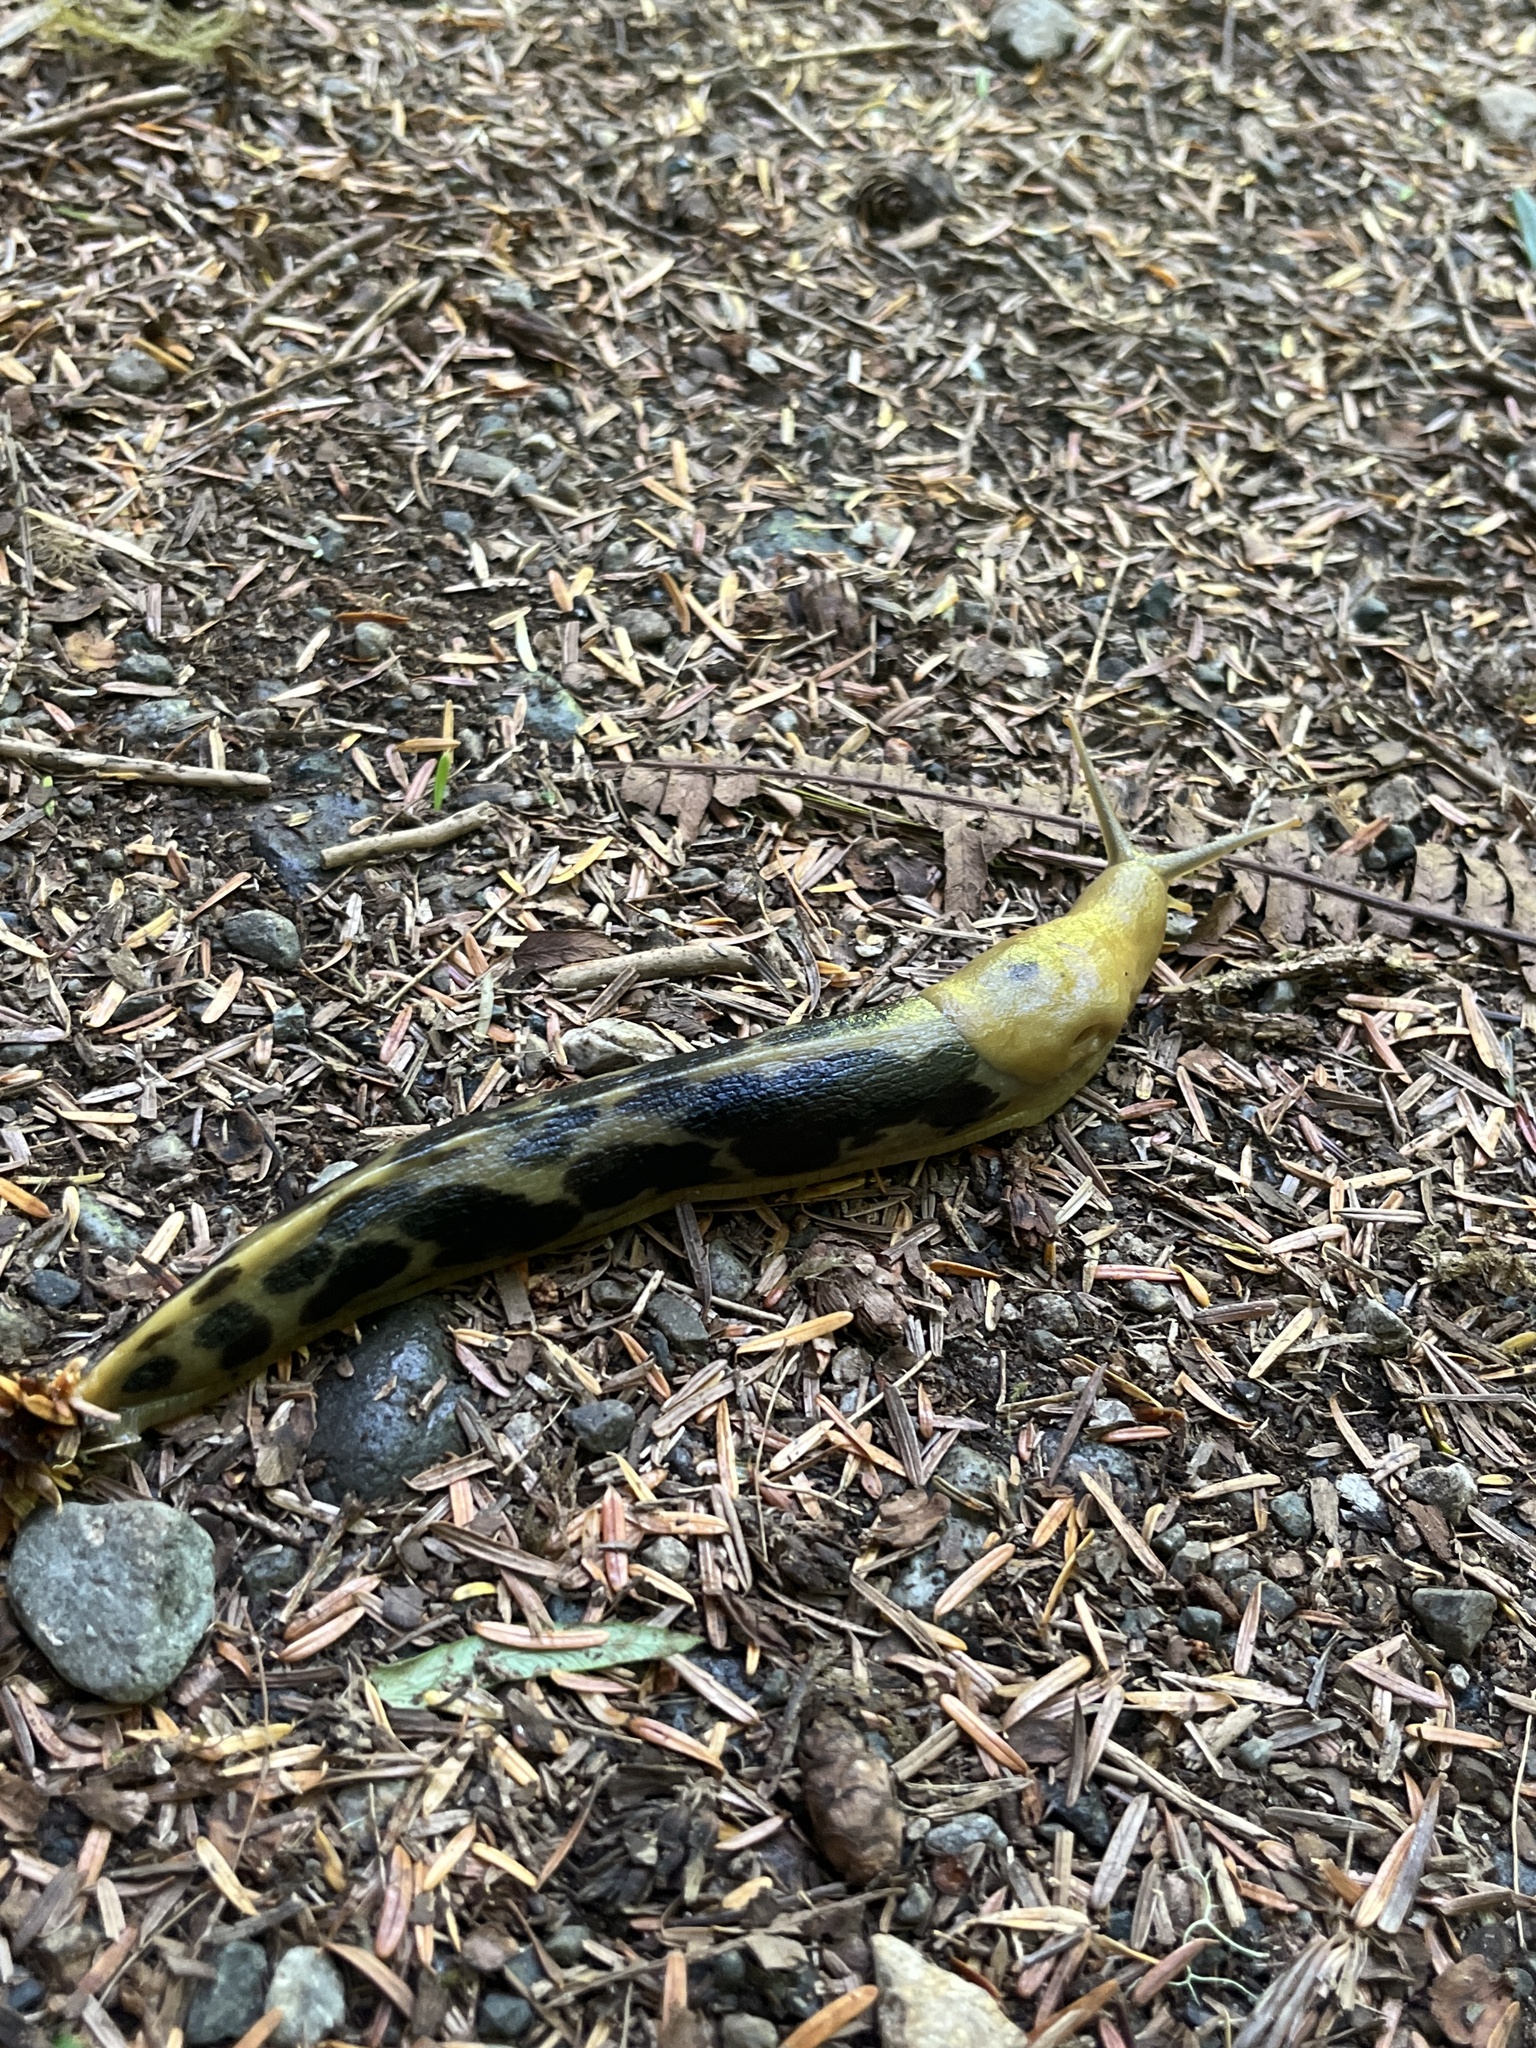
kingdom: Animalia
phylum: Mollusca
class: Gastropoda
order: Stylommatophora
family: Ariolimacidae
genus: Ariolimax
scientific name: Ariolimax columbianus
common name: Pacific banana slug
